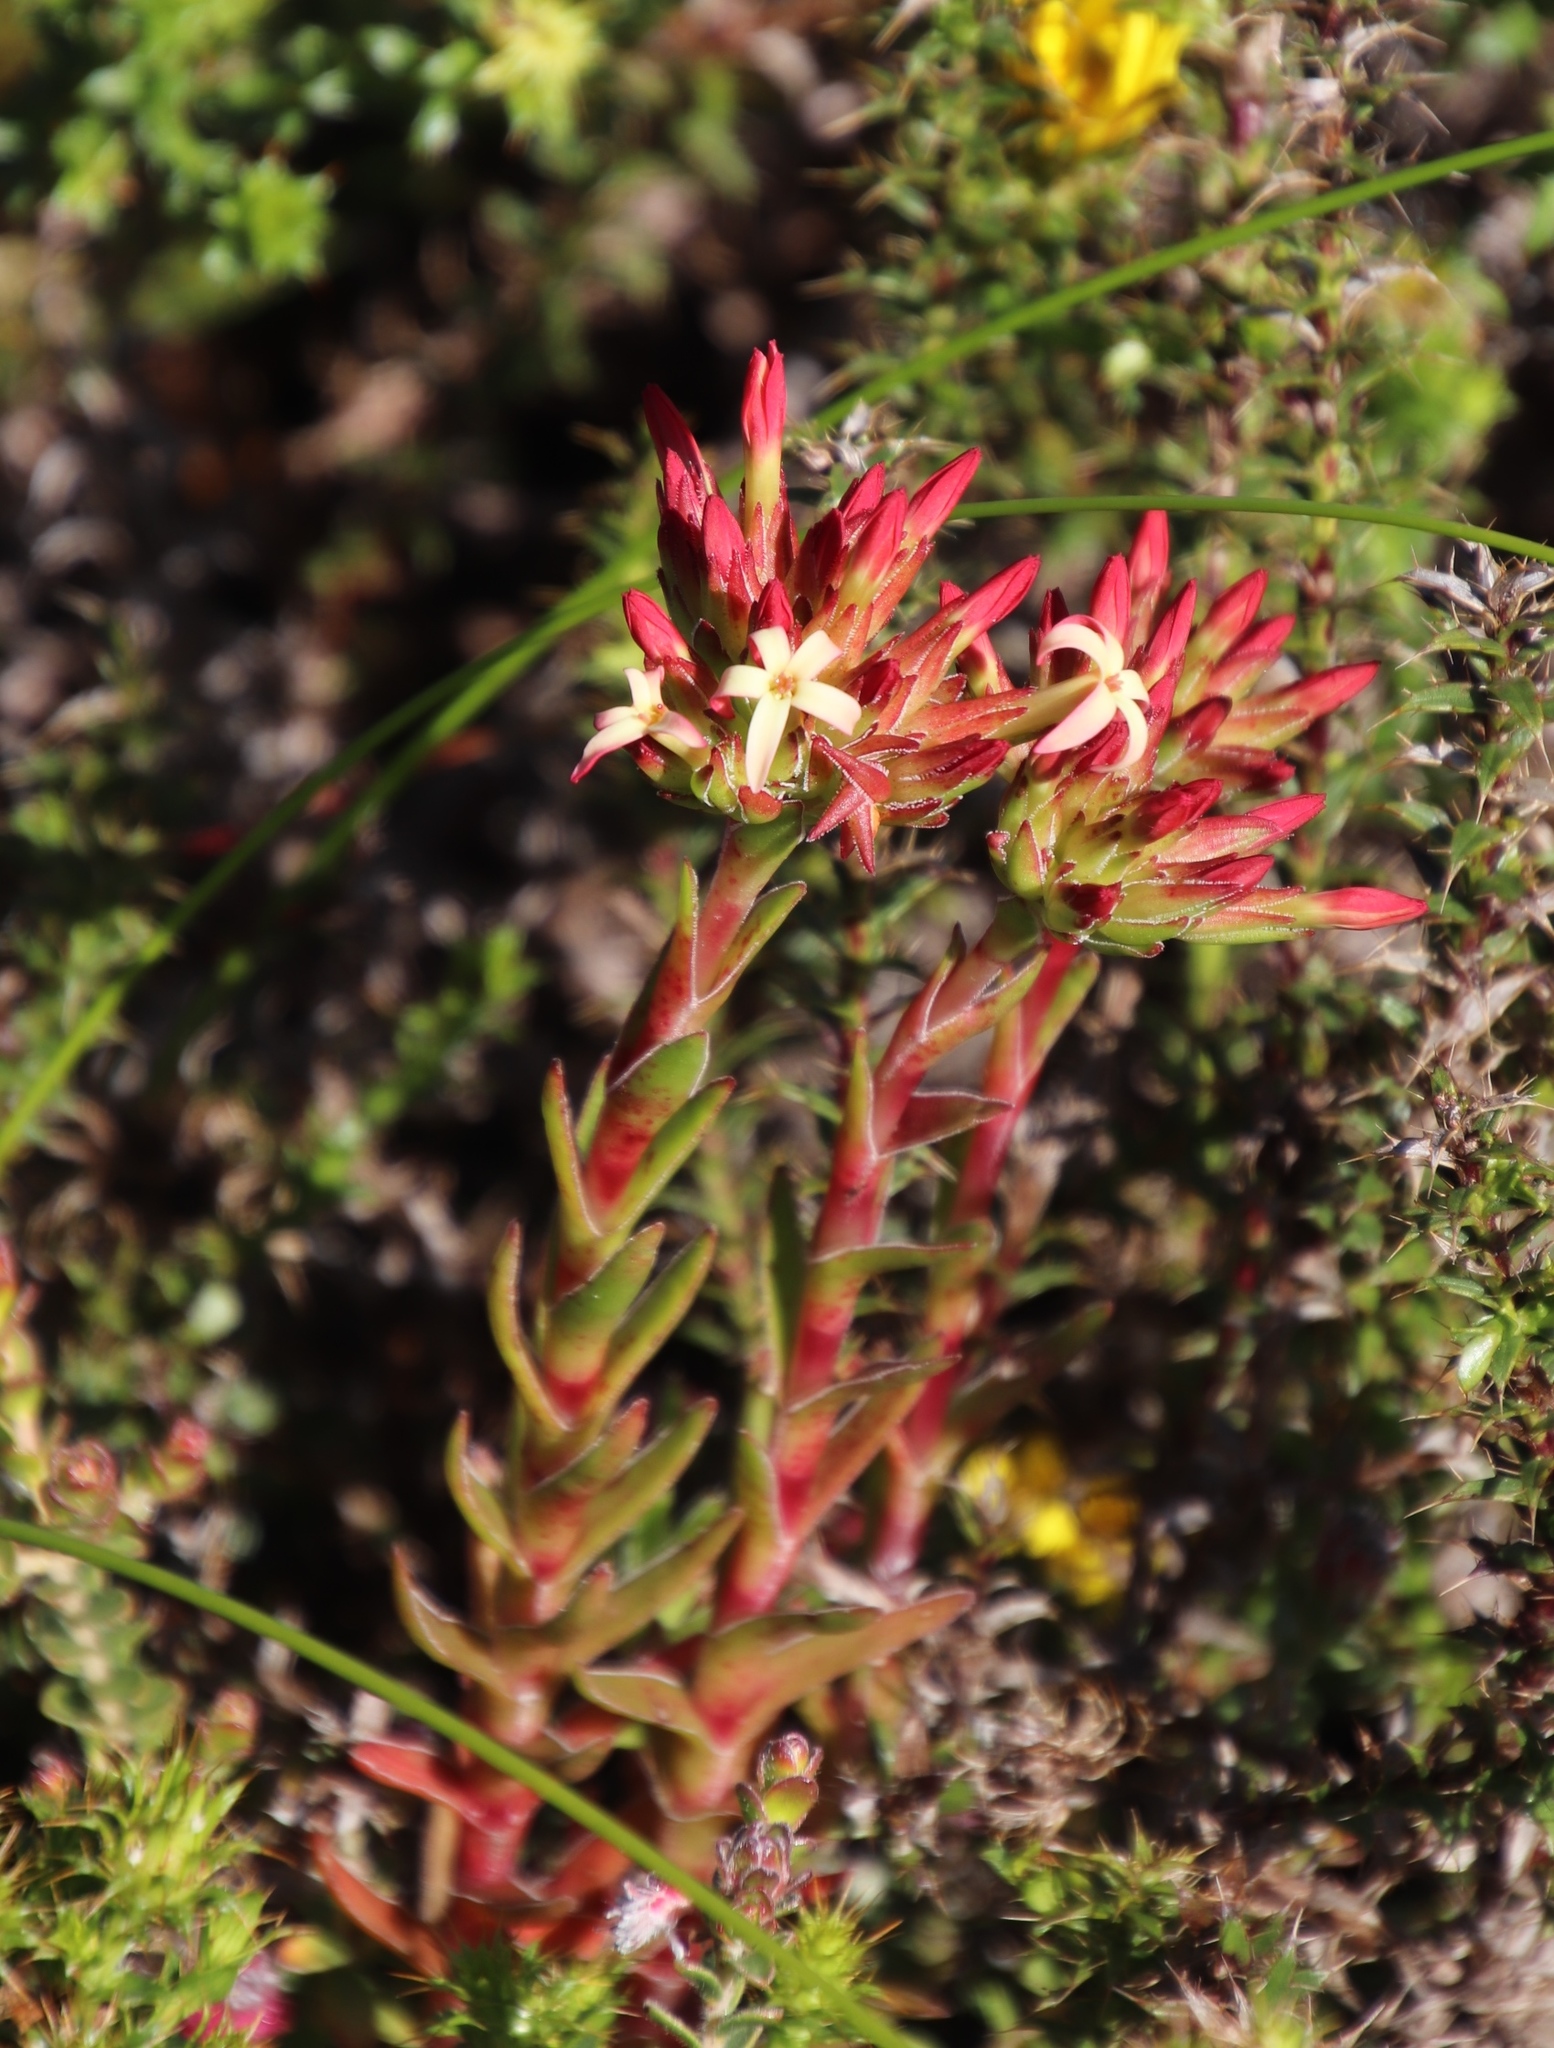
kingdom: Plantae
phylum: Tracheophyta
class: Magnoliopsida
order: Saxifragales
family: Crassulaceae
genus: Crassula
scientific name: Crassula fascicularis
